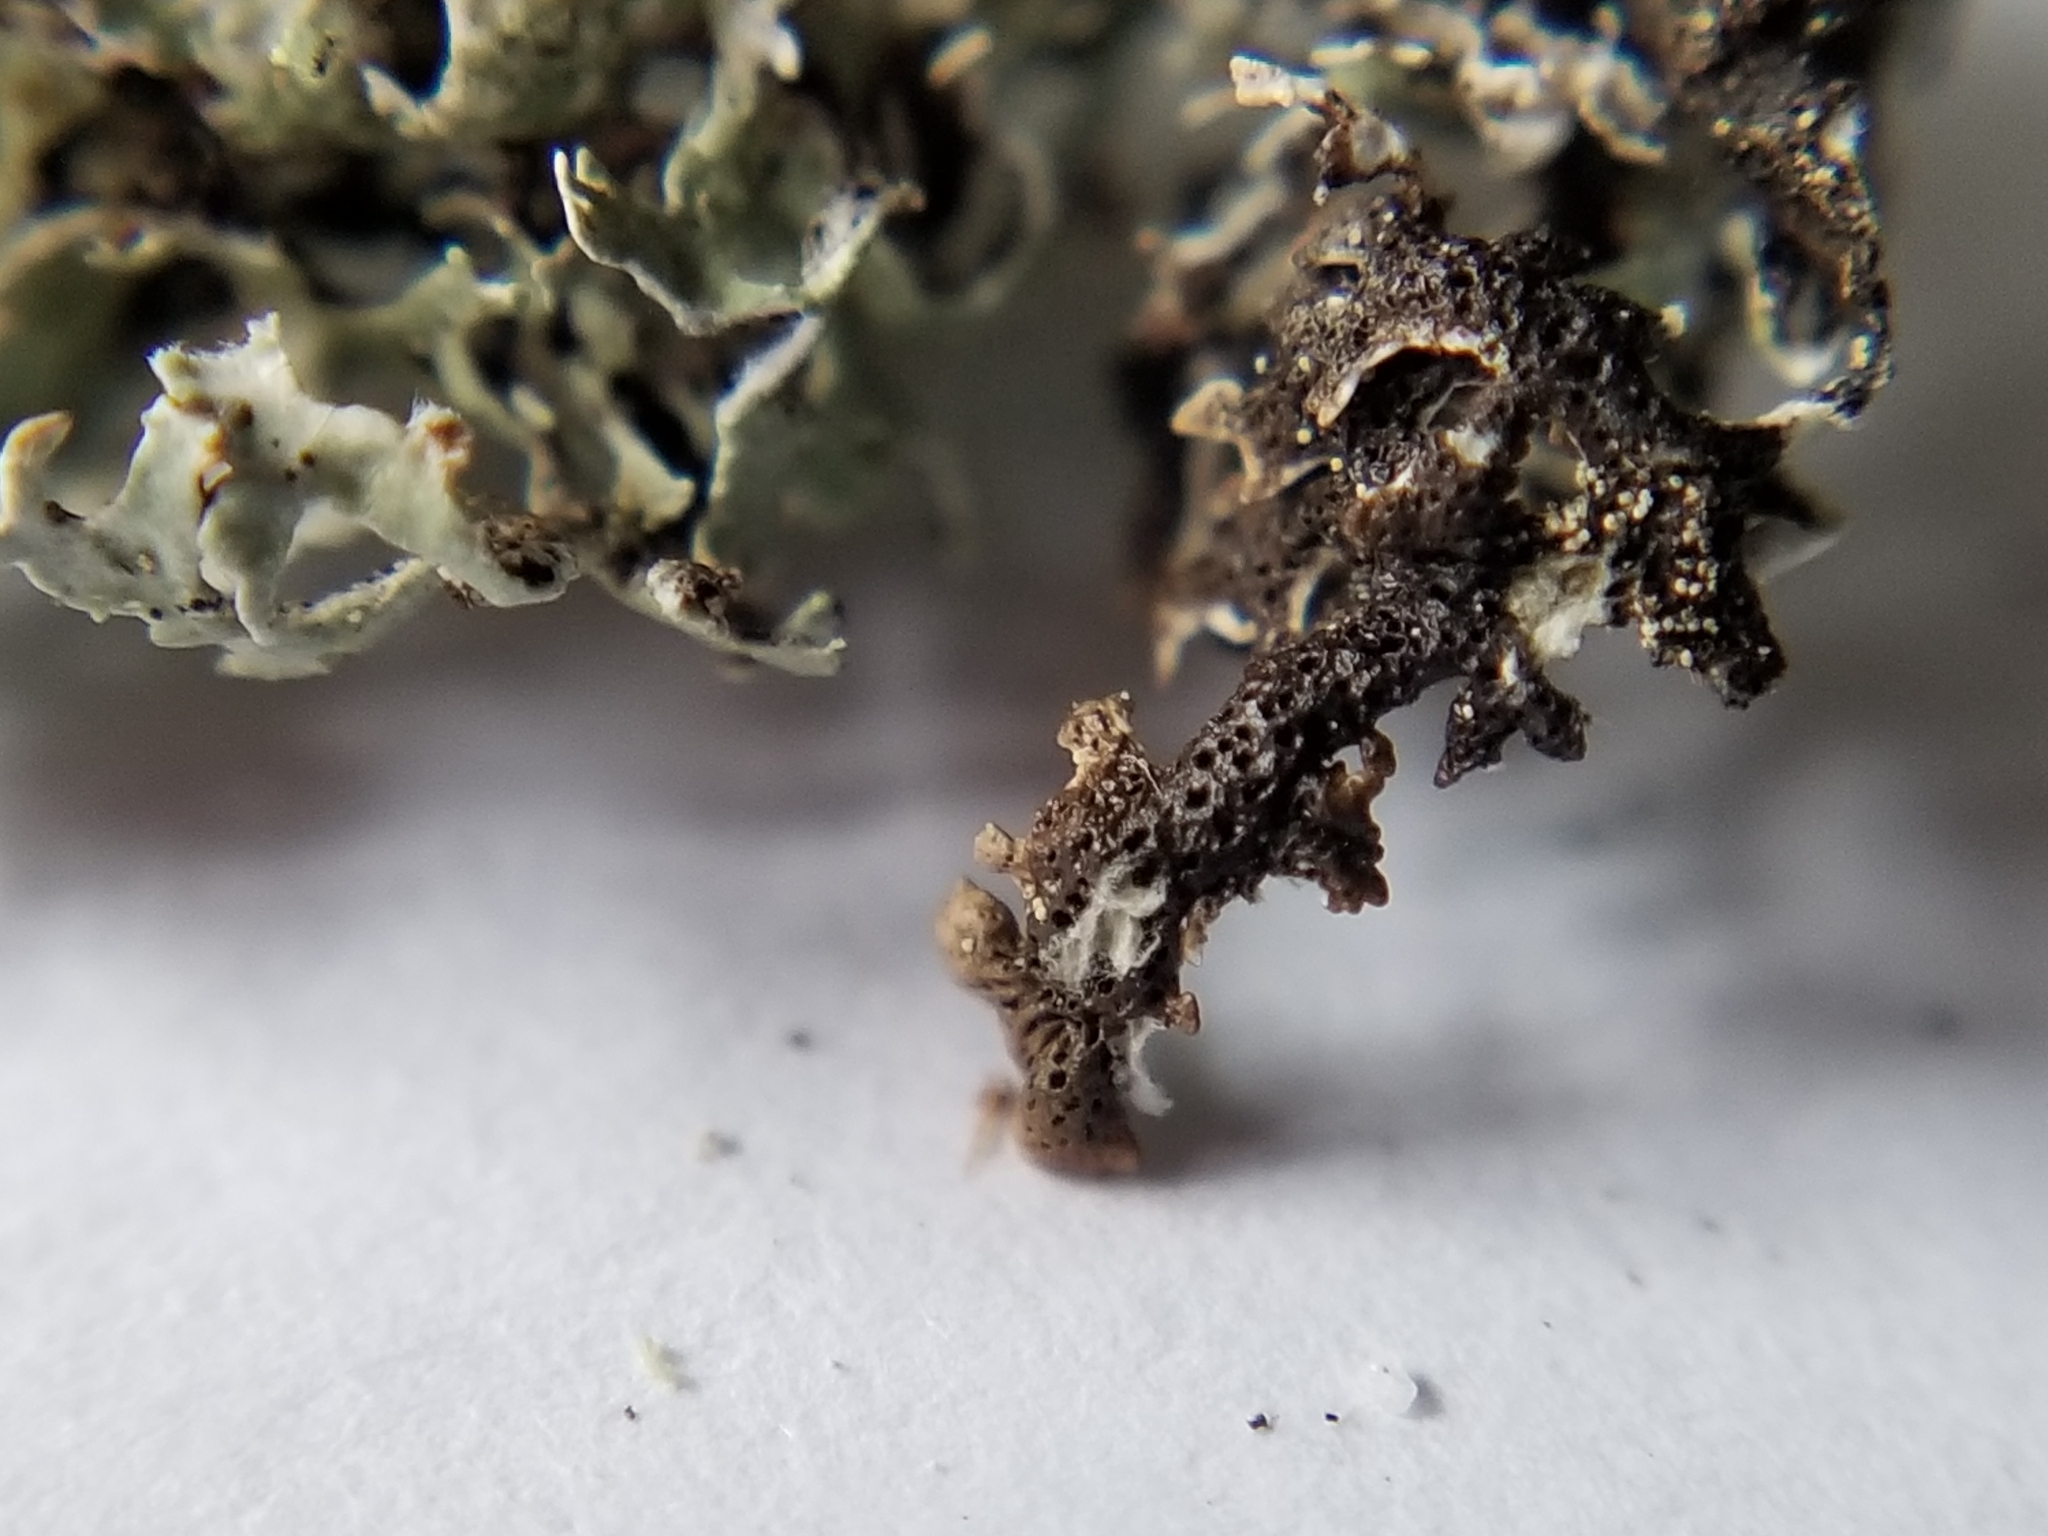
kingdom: Fungi
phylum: Ascomycota
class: Lecanoromycetes
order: Lecanorales
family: Parmeliaceae
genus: Hypogymnia
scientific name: Hypogymnia lophyrea
